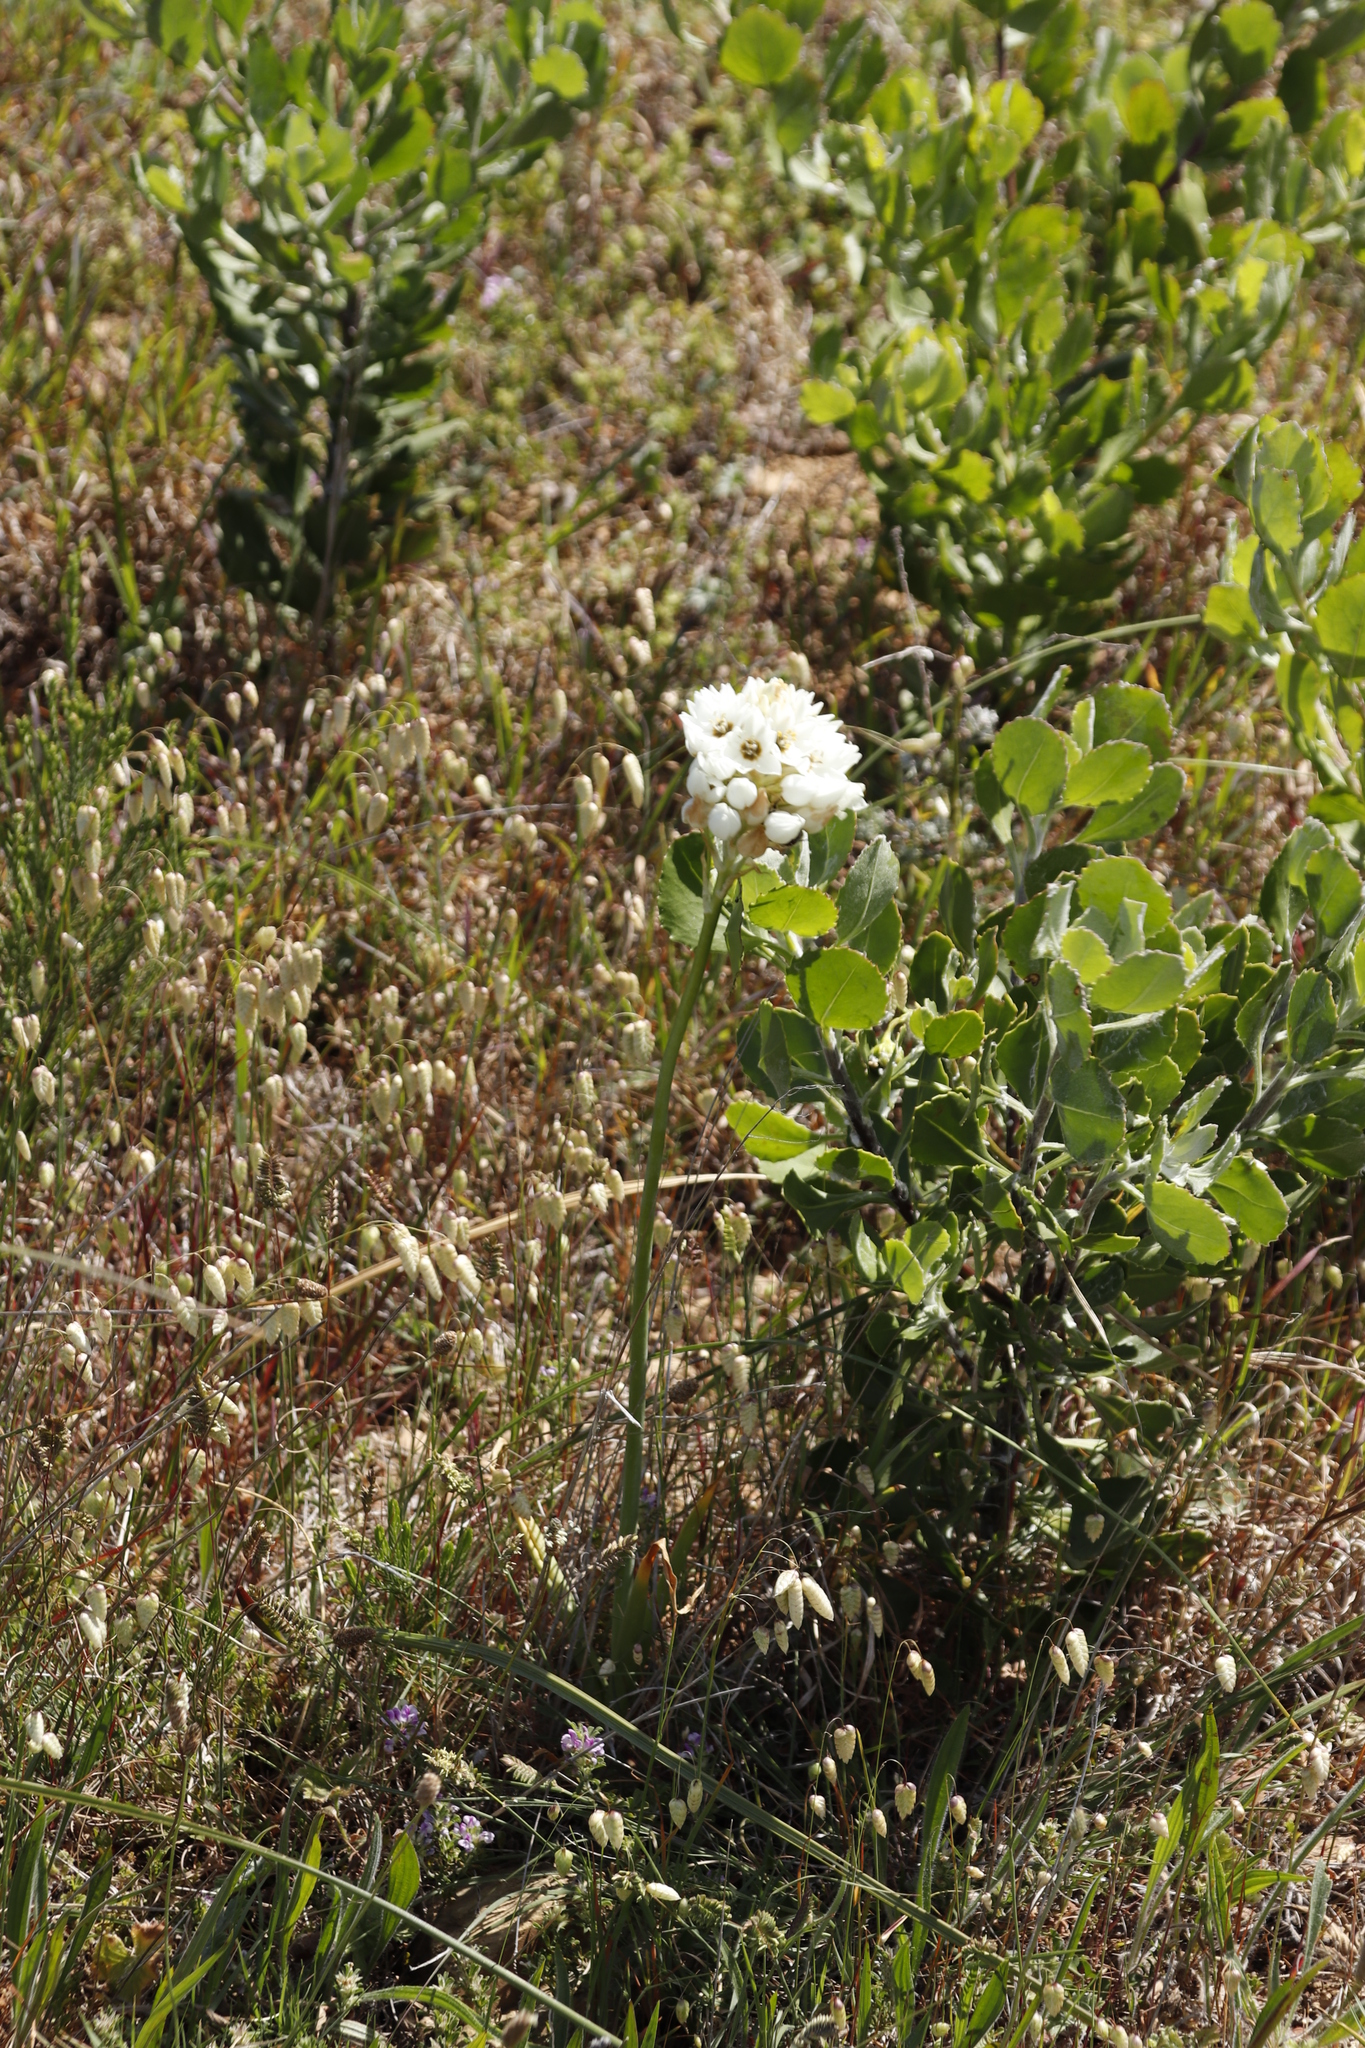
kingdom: Plantae
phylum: Tracheophyta
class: Liliopsida
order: Asparagales
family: Asparagaceae
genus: Ornithogalum
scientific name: Ornithogalum thyrsoides
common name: Chincherinchee
